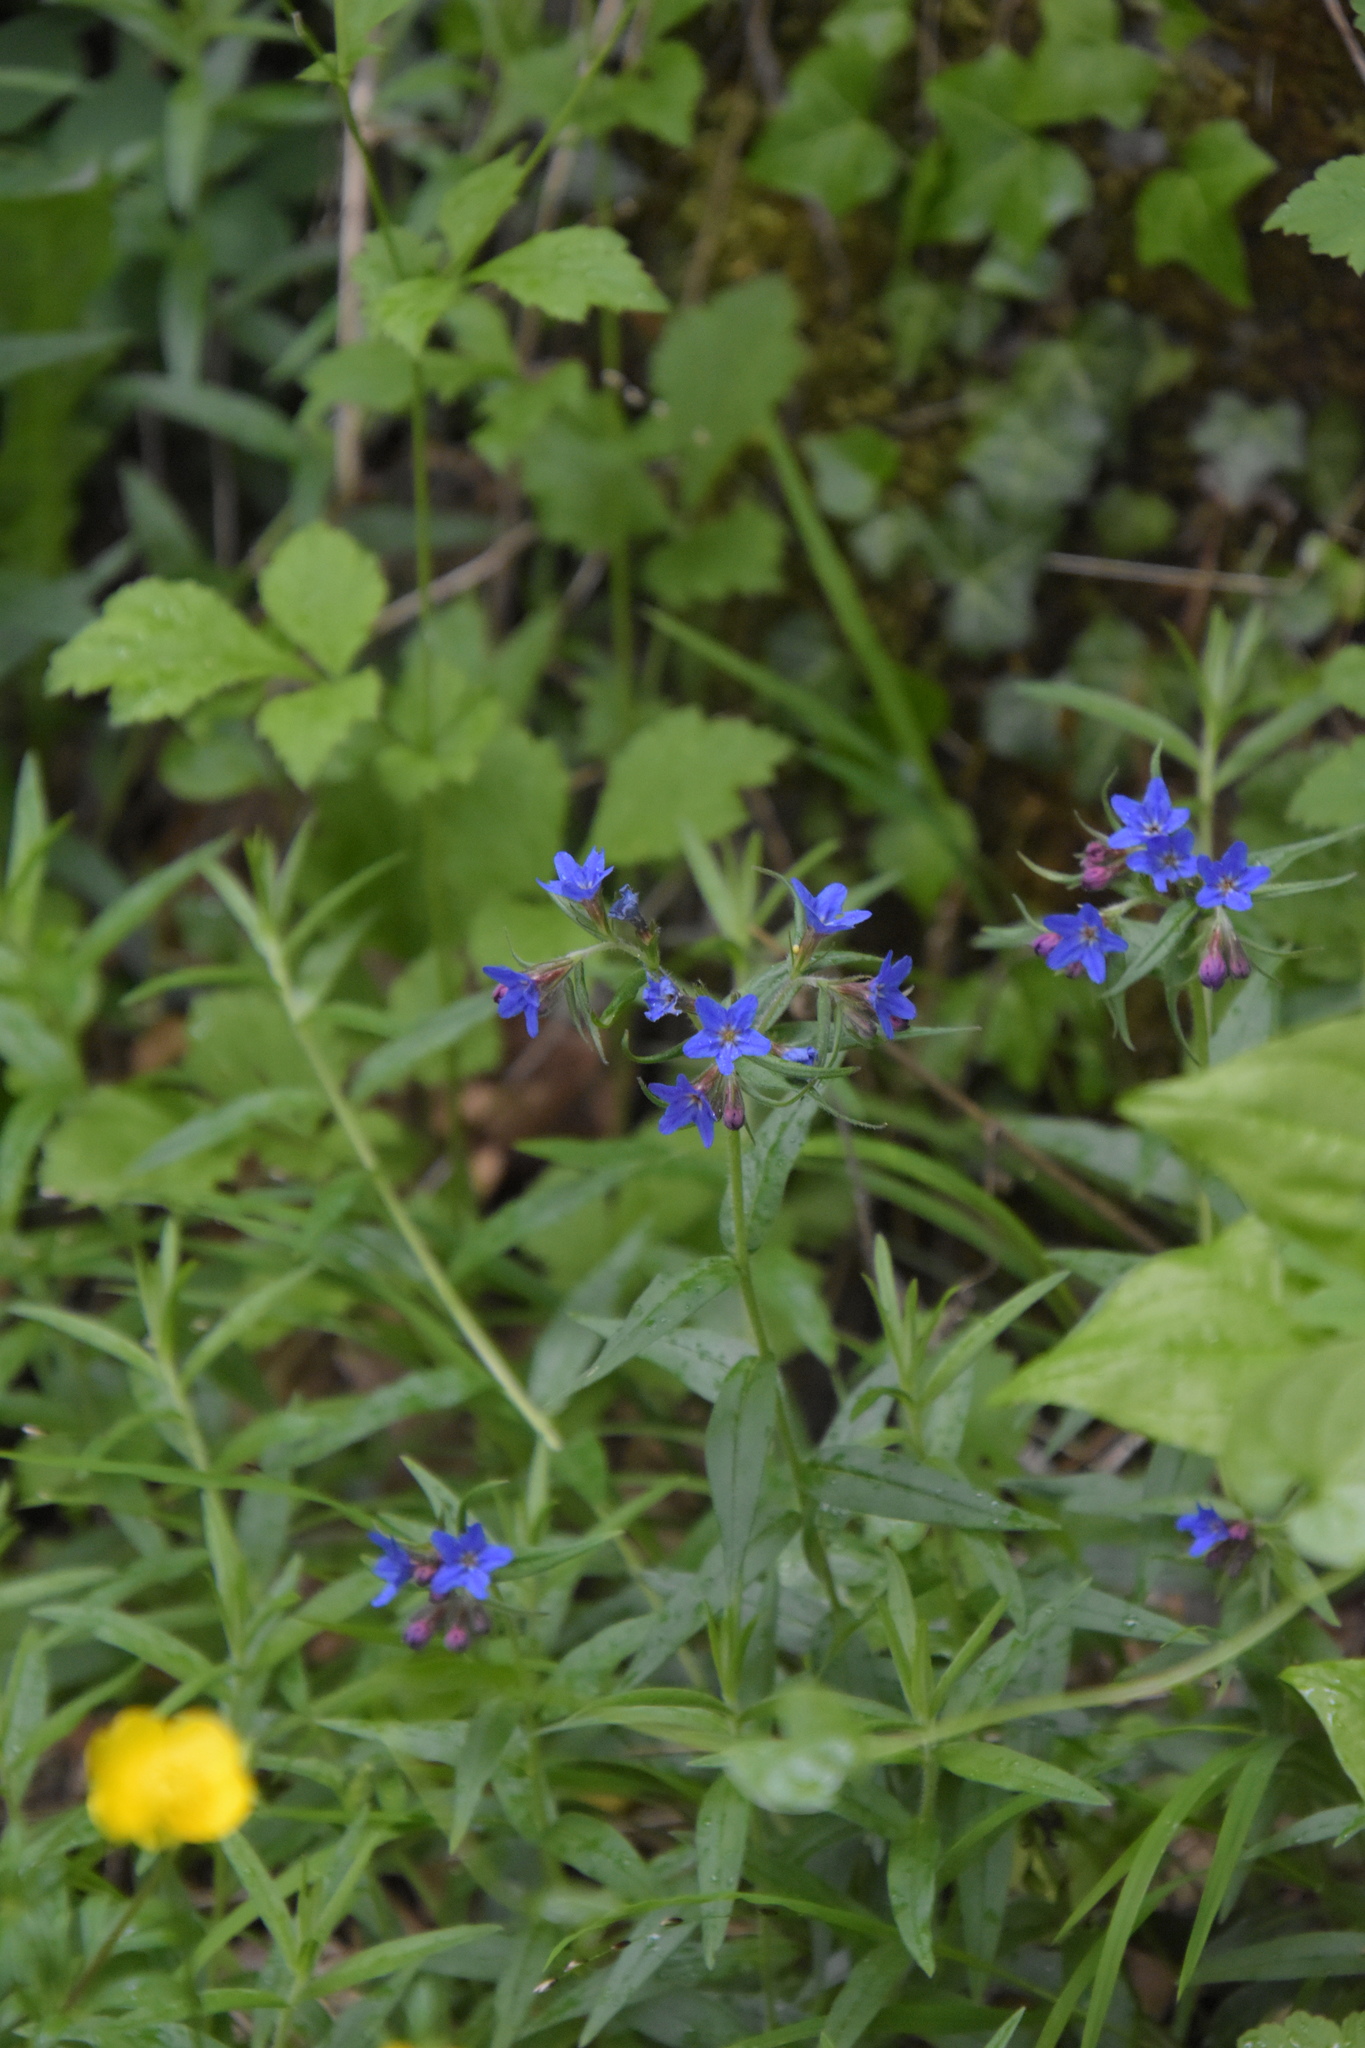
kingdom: Plantae
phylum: Tracheophyta
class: Magnoliopsida
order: Boraginales
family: Boraginaceae
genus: Aegonychon
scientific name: Aegonychon purpurocaeruleum
